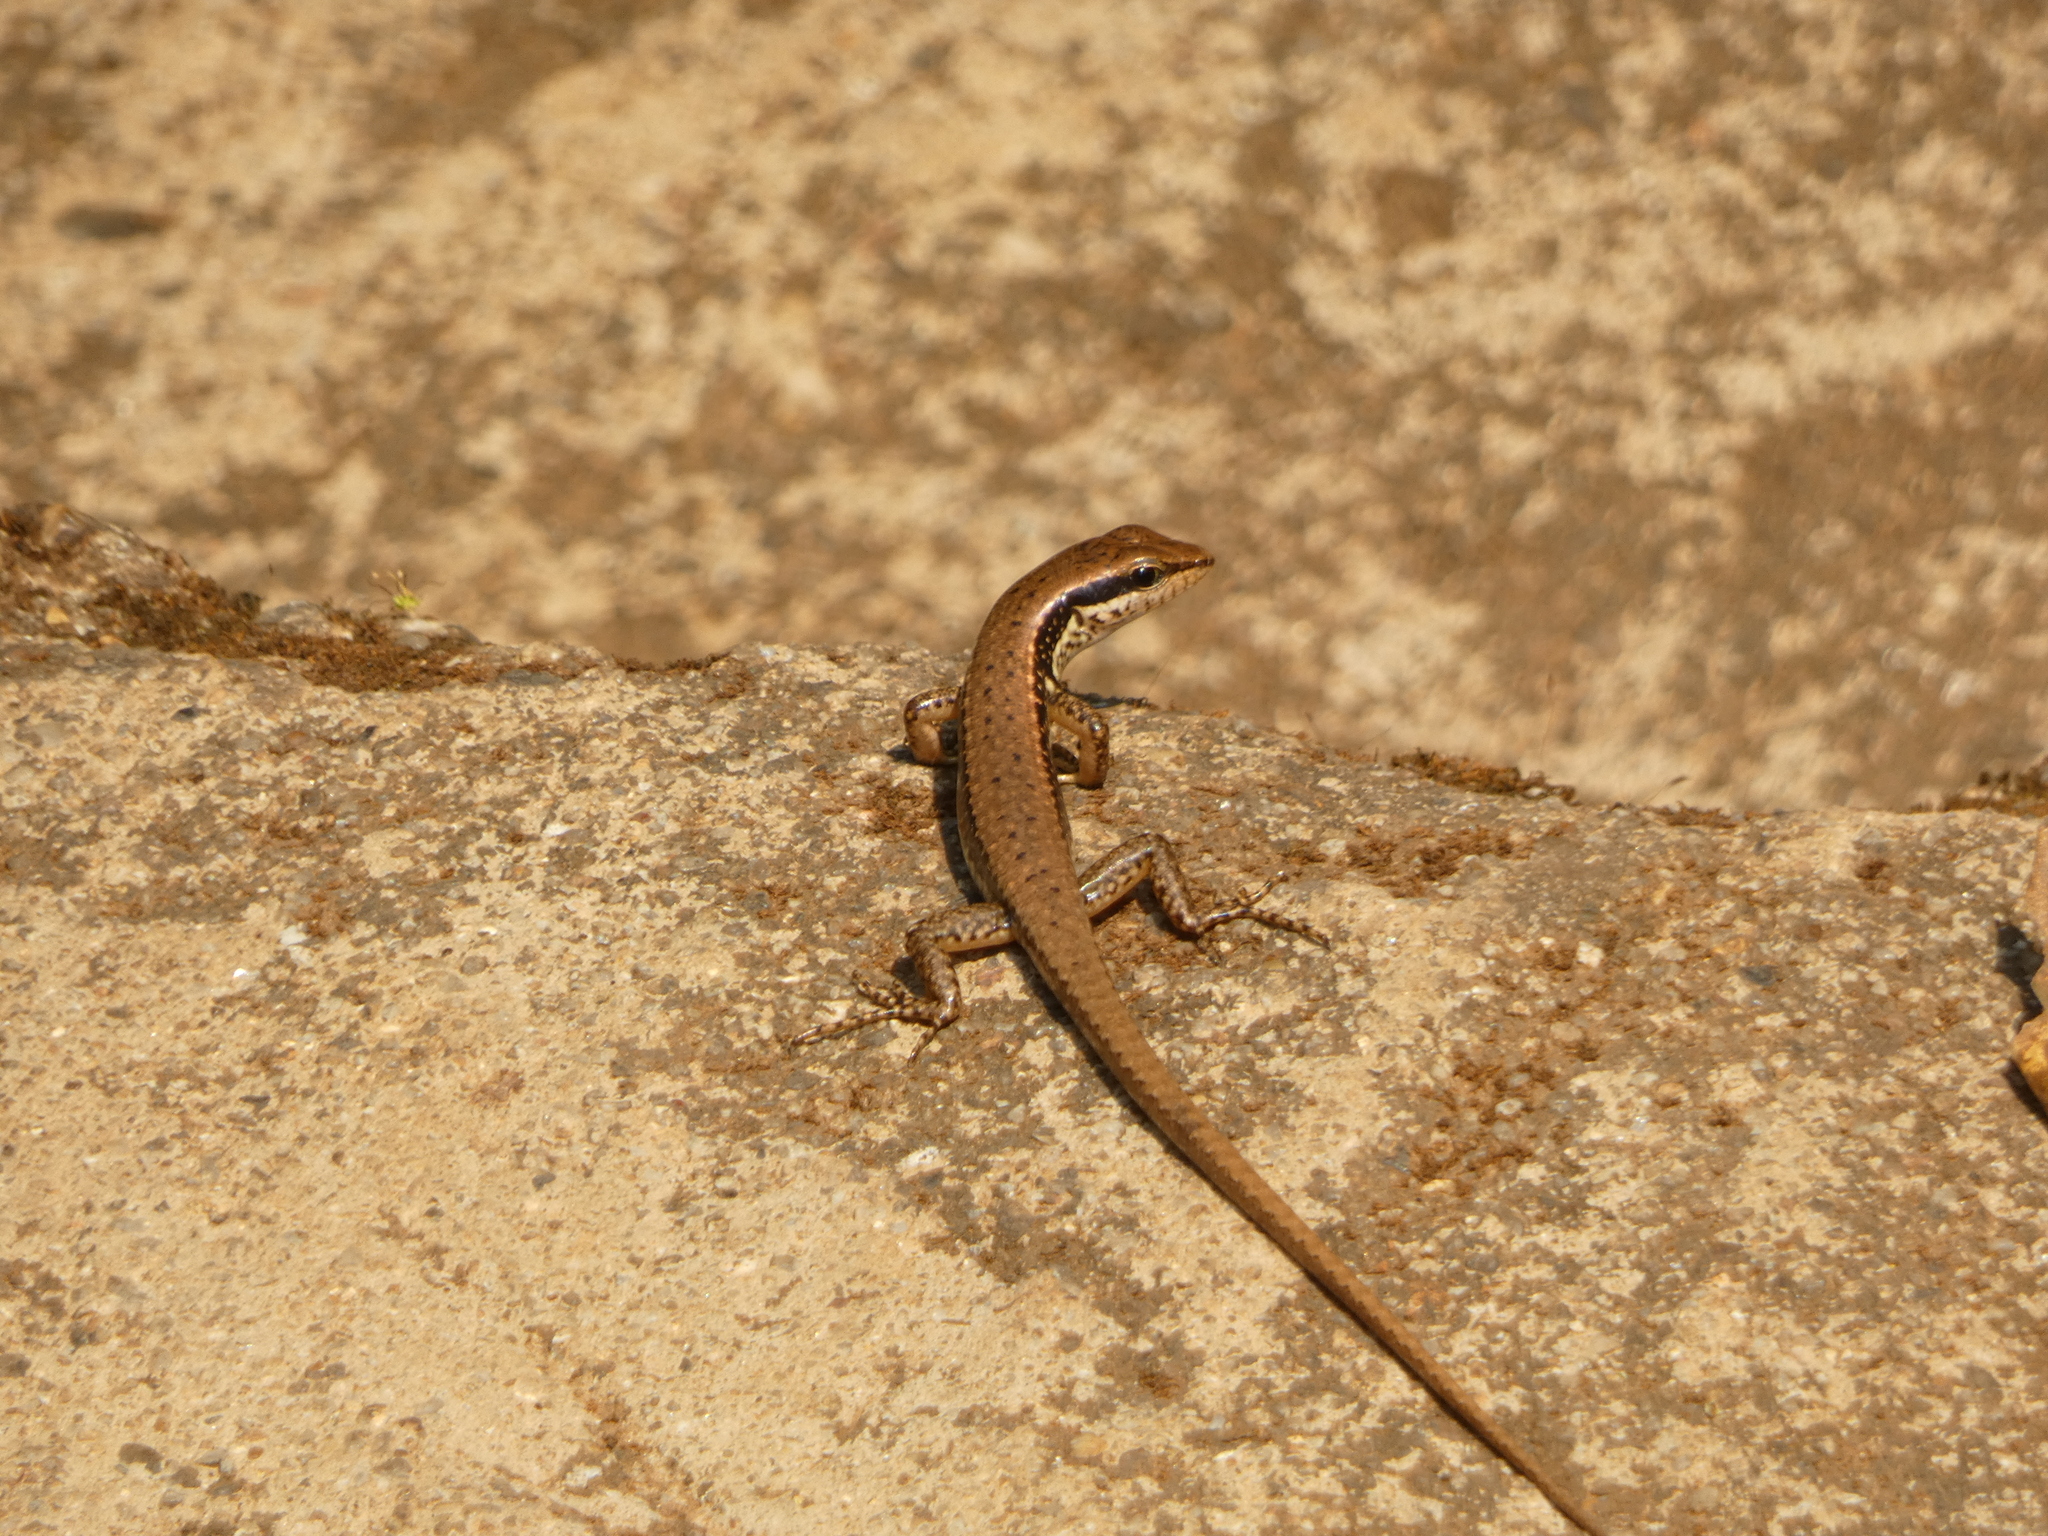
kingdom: Animalia
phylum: Chordata
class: Squamata
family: Scincidae
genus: Sphenomorphus
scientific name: Sphenomorphus maculatus
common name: Maculated forest skink
